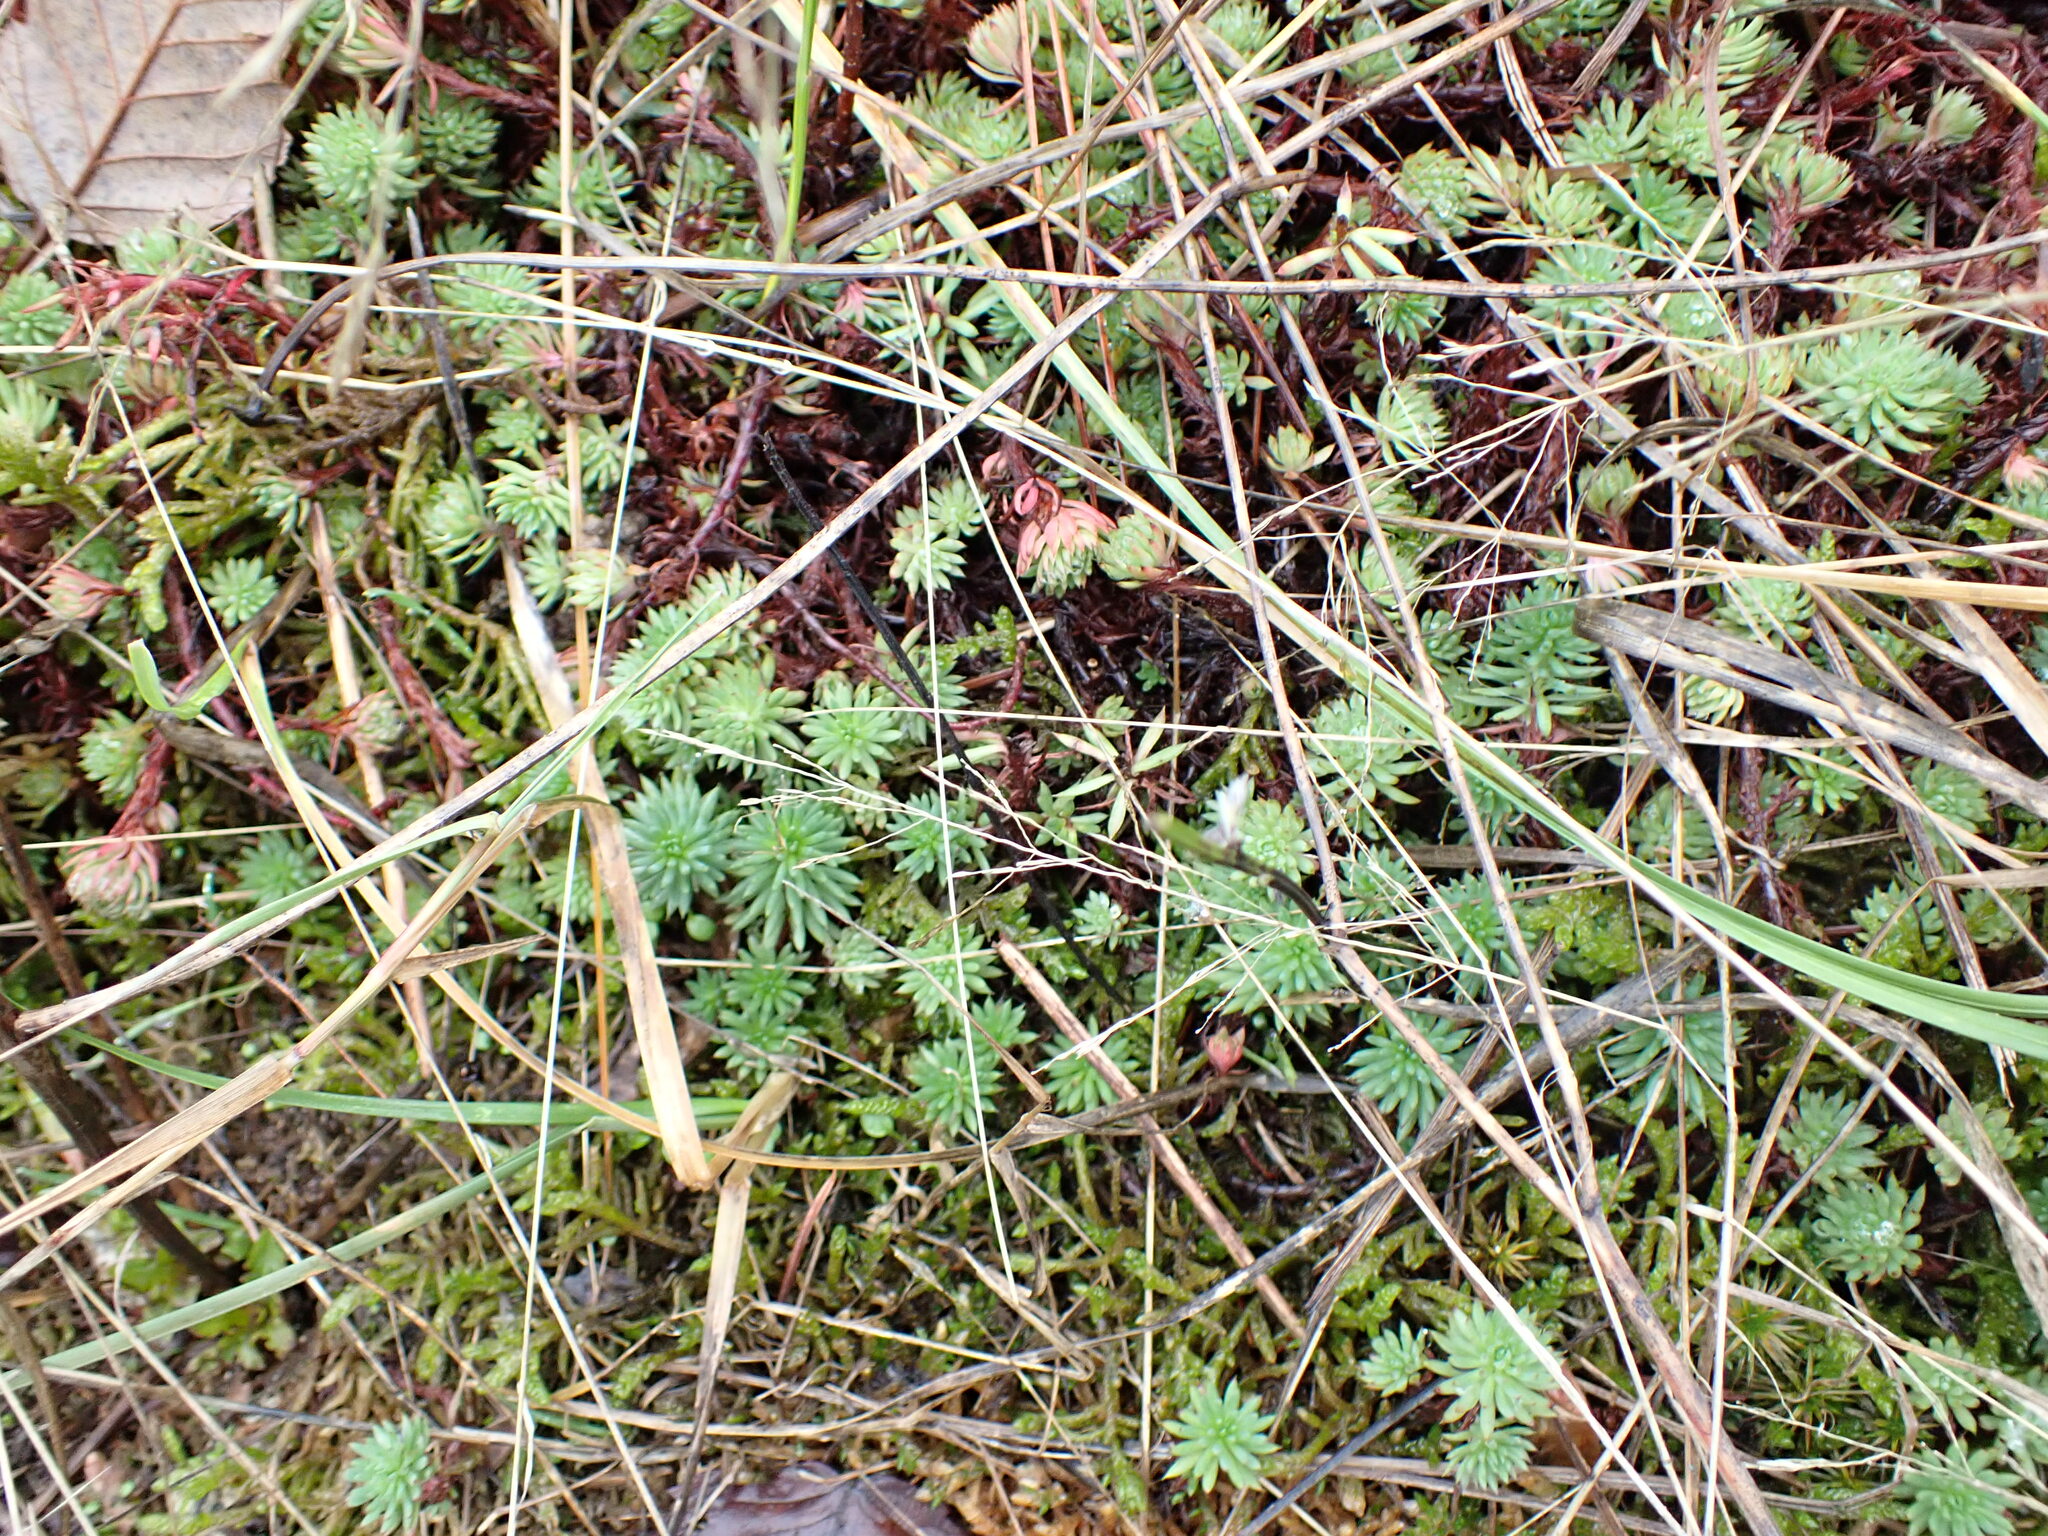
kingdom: Plantae
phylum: Tracheophyta
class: Magnoliopsida
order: Saxifragales
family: Crassulaceae
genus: Petrosedum
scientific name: Petrosedum forsterianum
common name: Forster's stonecrop
